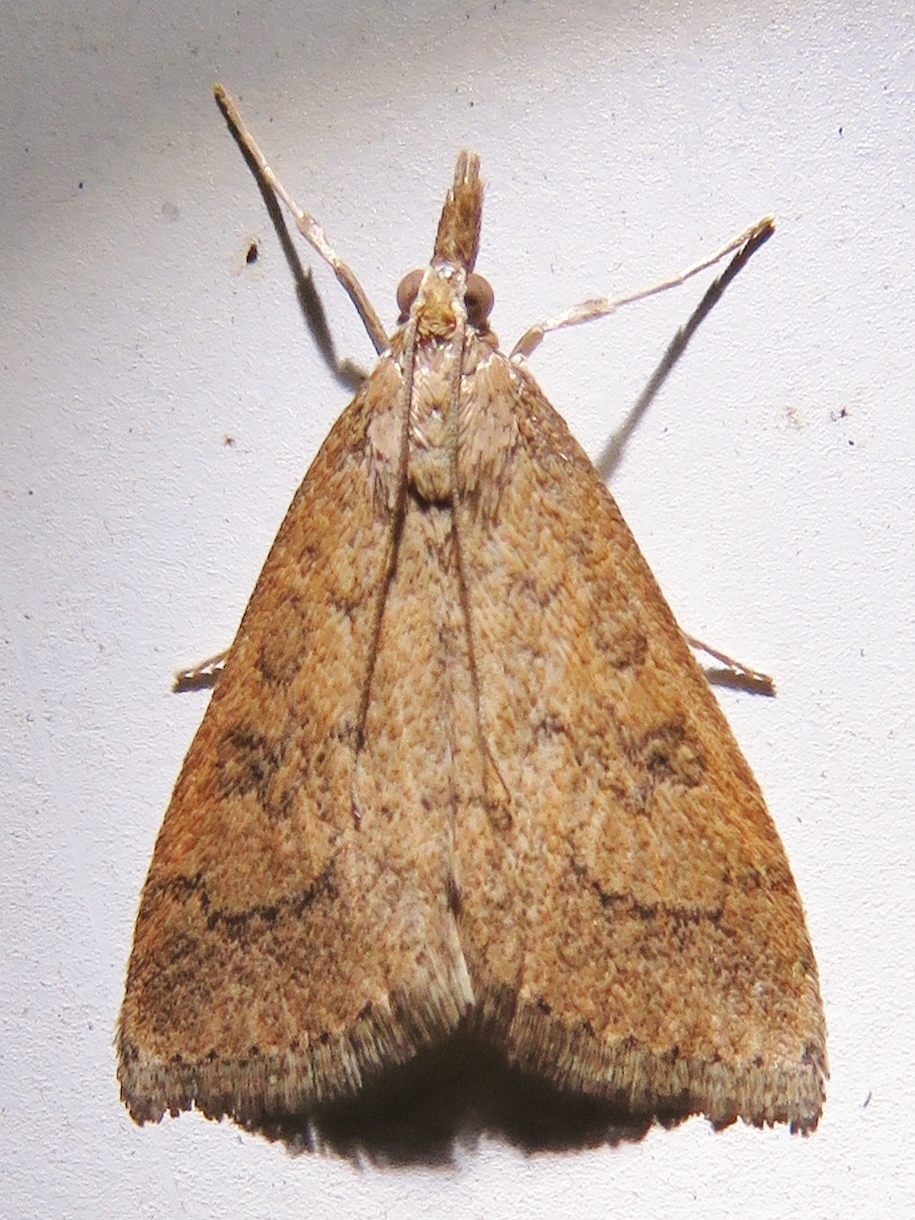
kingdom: Animalia
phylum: Arthropoda
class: Insecta
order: Lepidoptera
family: Crambidae
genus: Udea
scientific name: Udea rubigalis
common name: Celery leaftier moth
